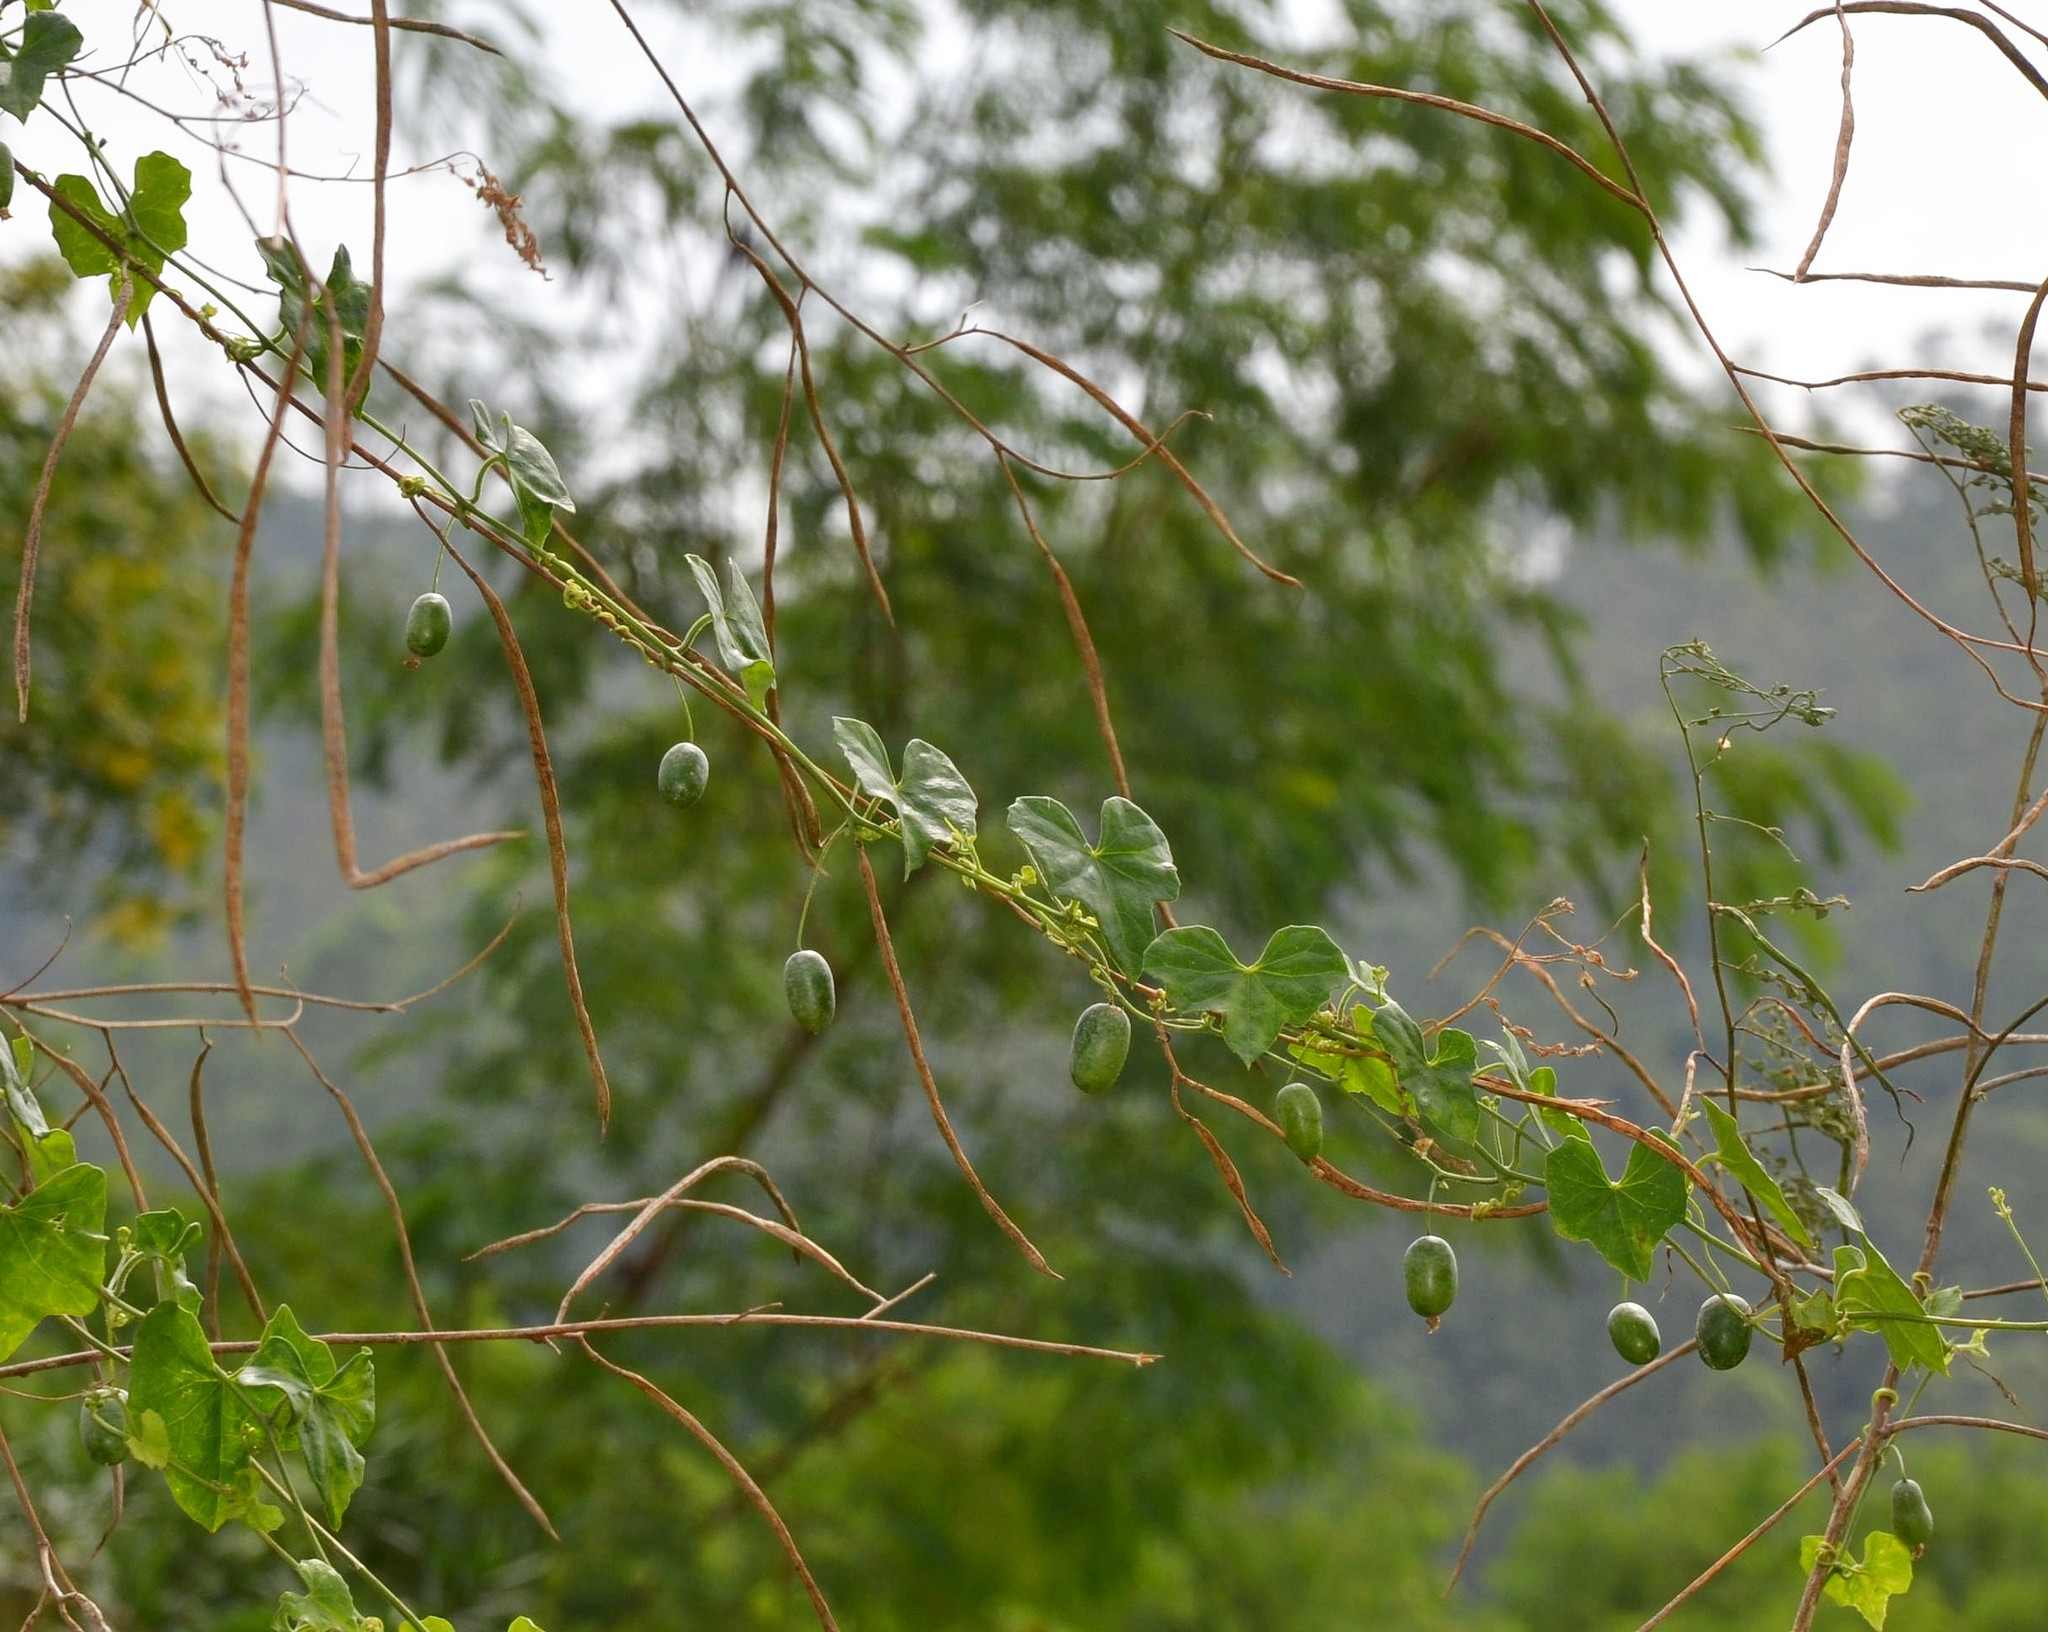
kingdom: Plantae
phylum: Tracheophyta
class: Magnoliopsida
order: Cucurbitales
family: Cucurbitaceae
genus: Melothria
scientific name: Melothria pendula
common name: Creeping-cucumber
